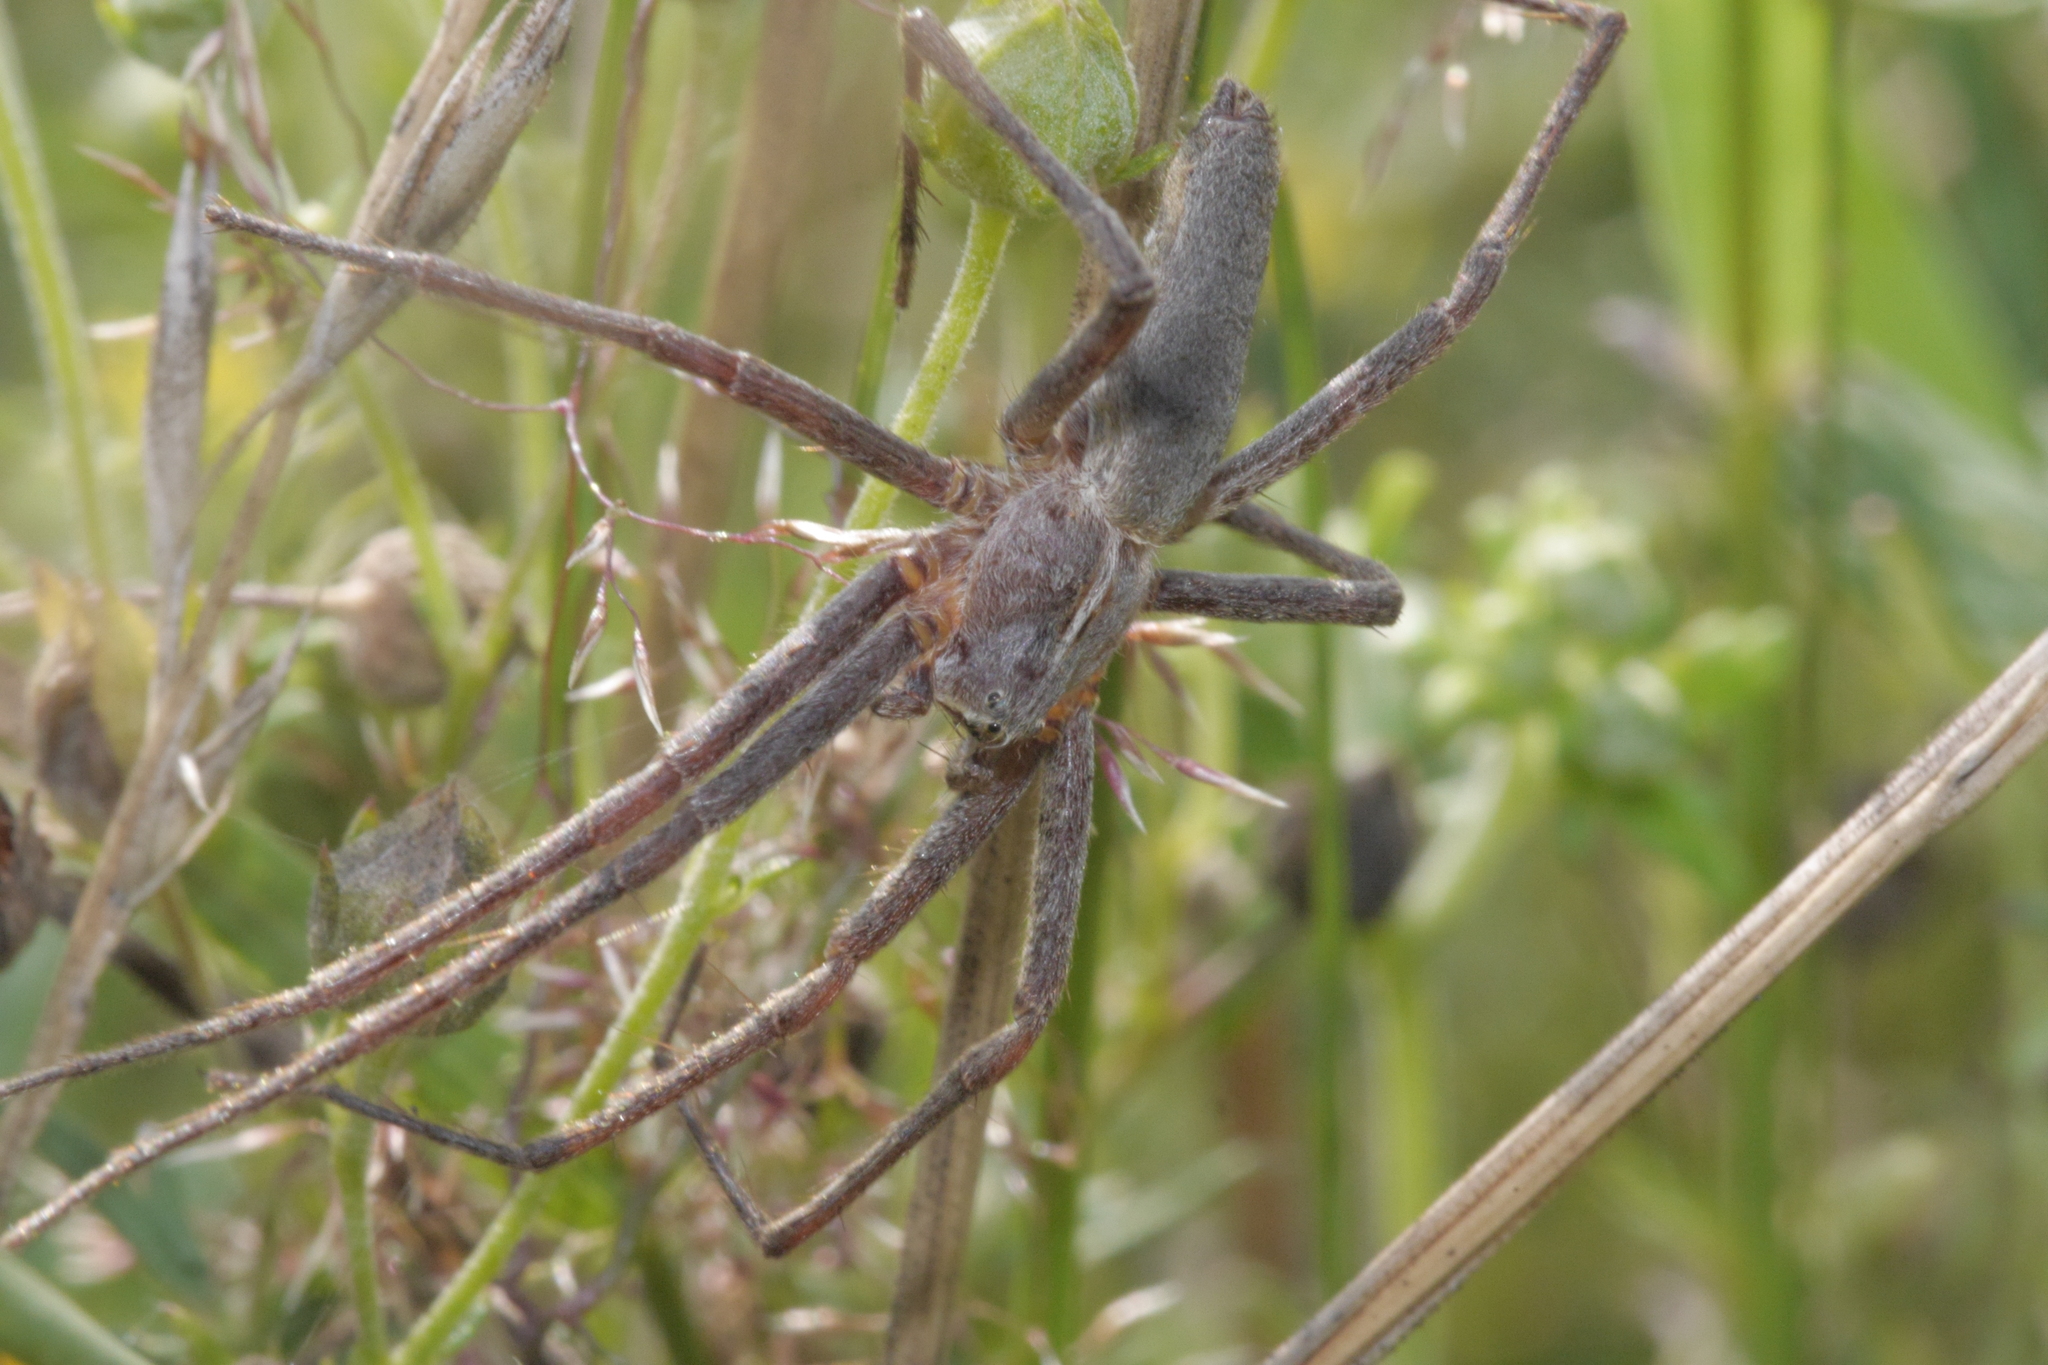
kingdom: Animalia
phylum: Arthropoda
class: Arachnida
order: Araneae
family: Pisauridae
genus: Pisaura
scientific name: Pisaura mirabilis
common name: Tent spider
